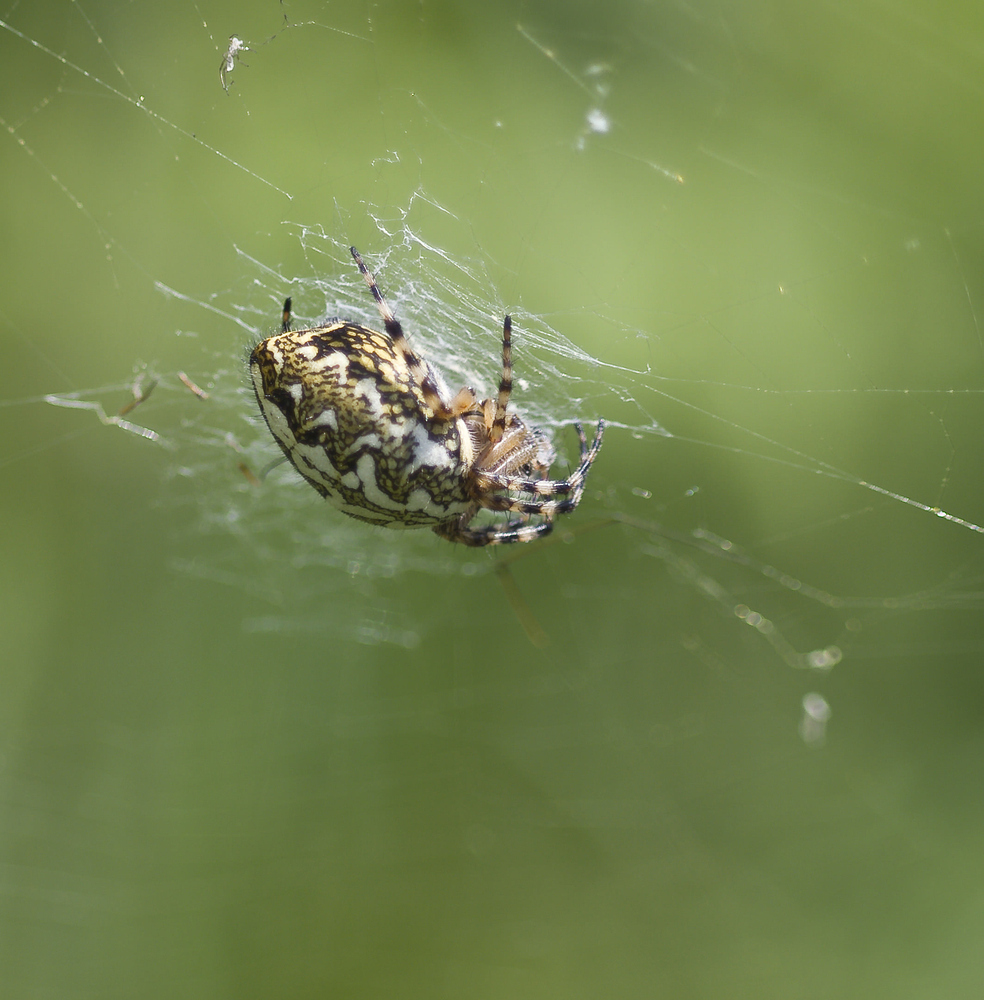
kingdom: Animalia
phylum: Arthropoda
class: Arachnida
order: Araneae
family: Araneidae
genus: Aculepeira
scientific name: Aculepeira ceropegia
